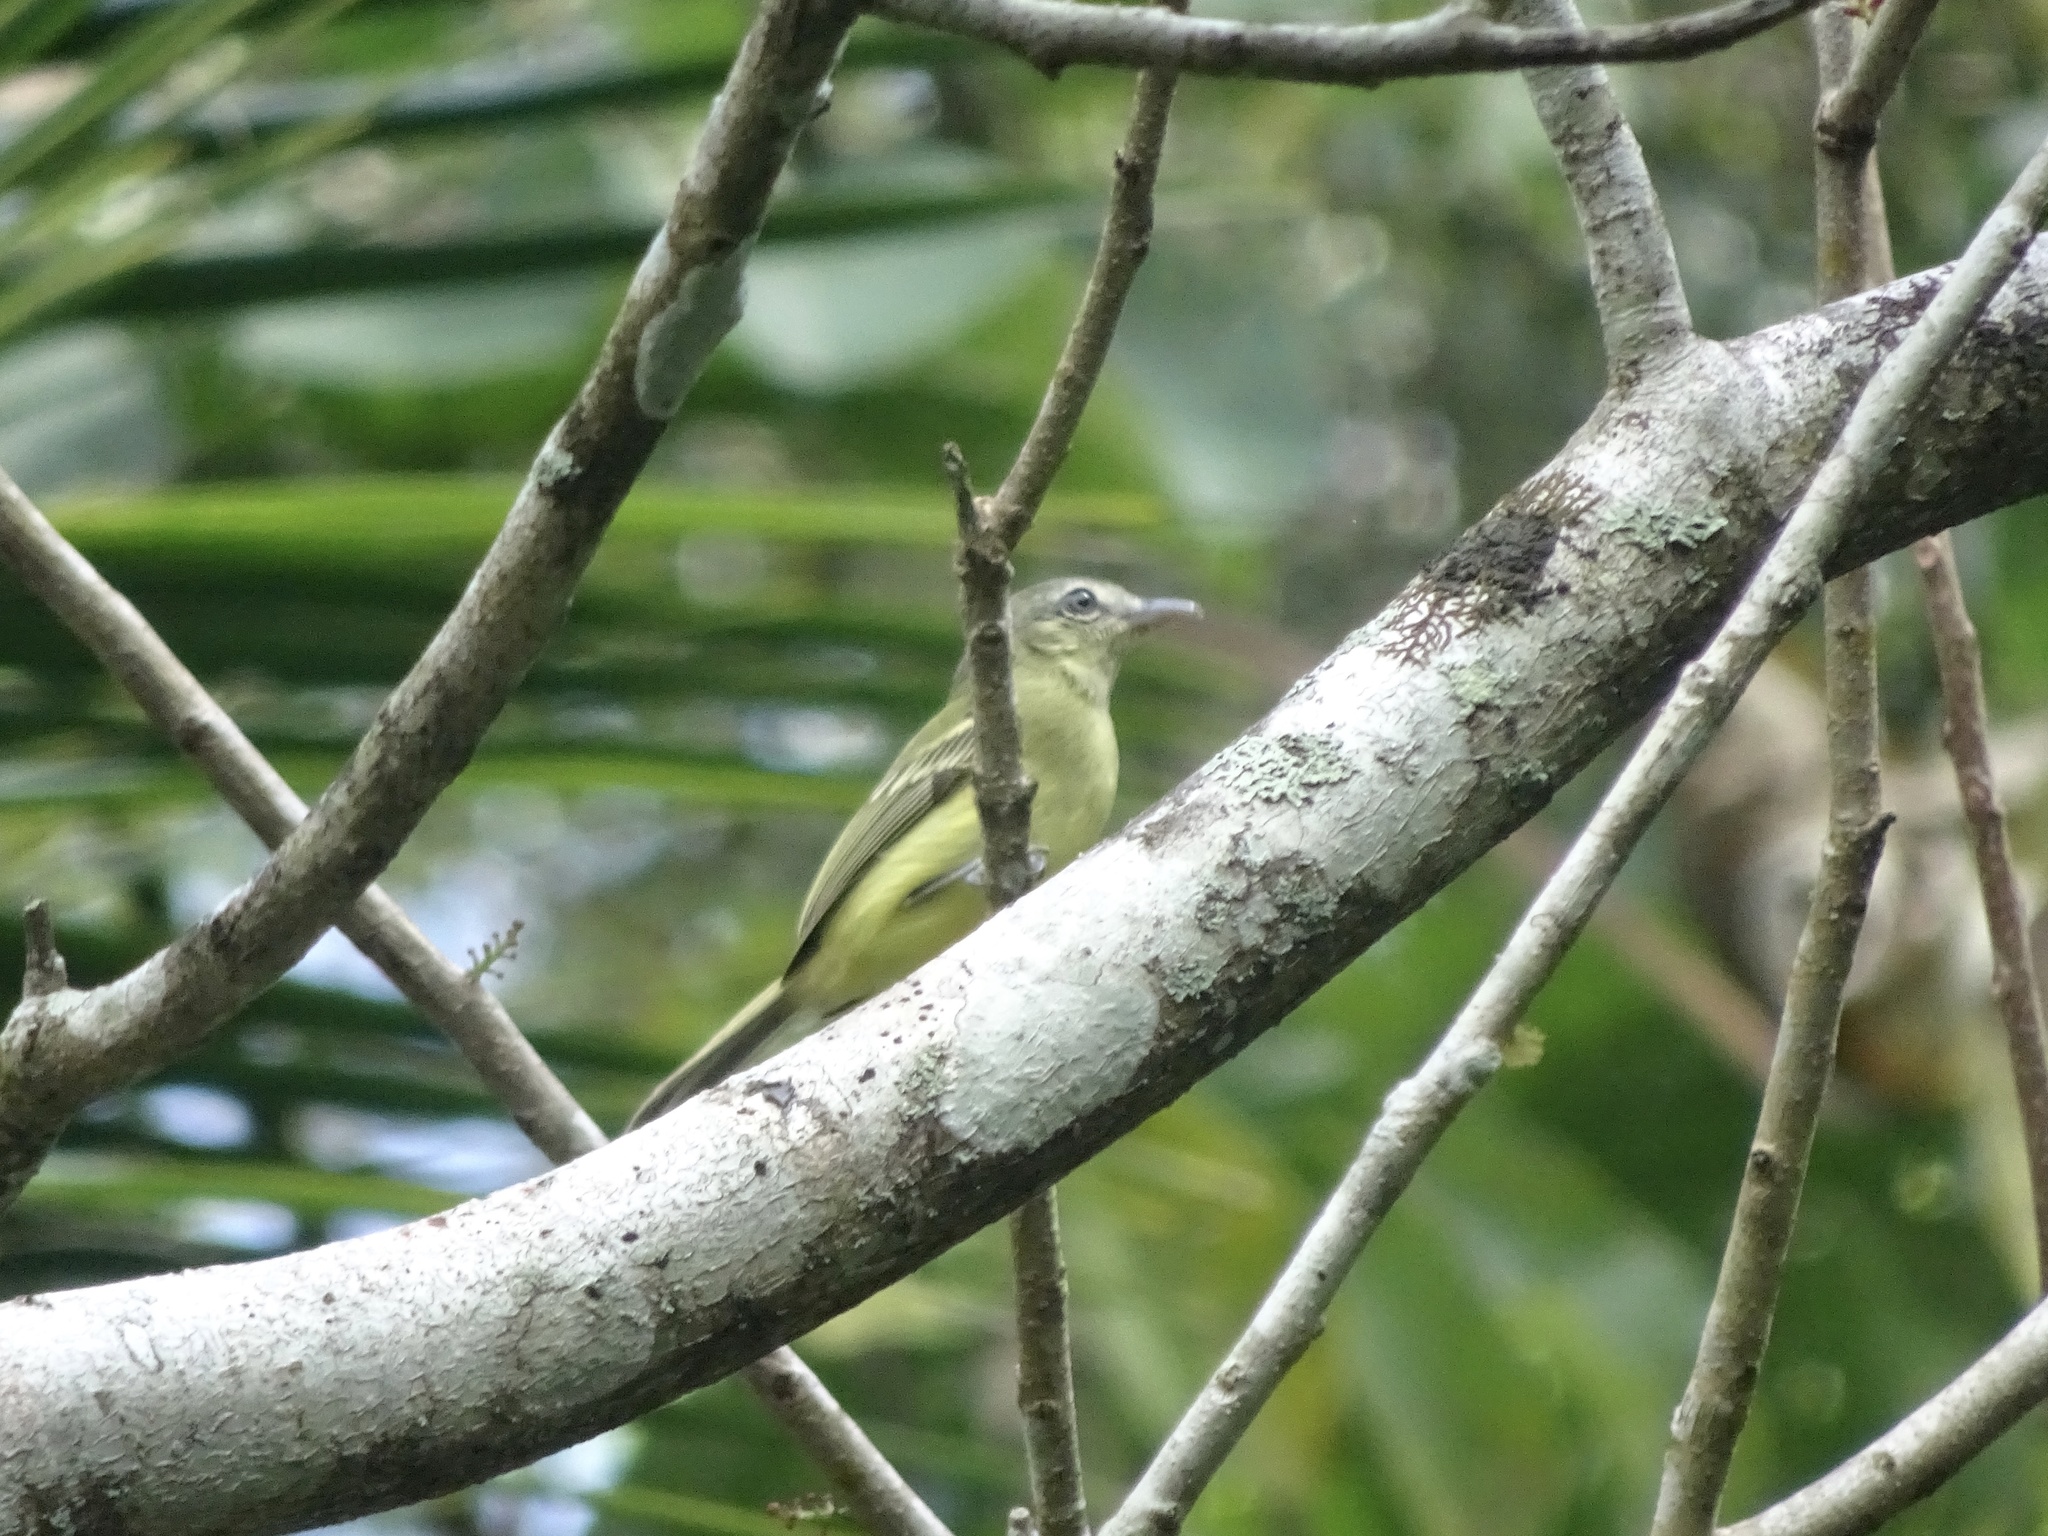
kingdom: Animalia
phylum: Chordata
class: Aves
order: Passeriformes
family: Tyrannidae
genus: Tolmomyias
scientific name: Tolmomyias sulphurescens
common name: Yellow-olive flycatcher
